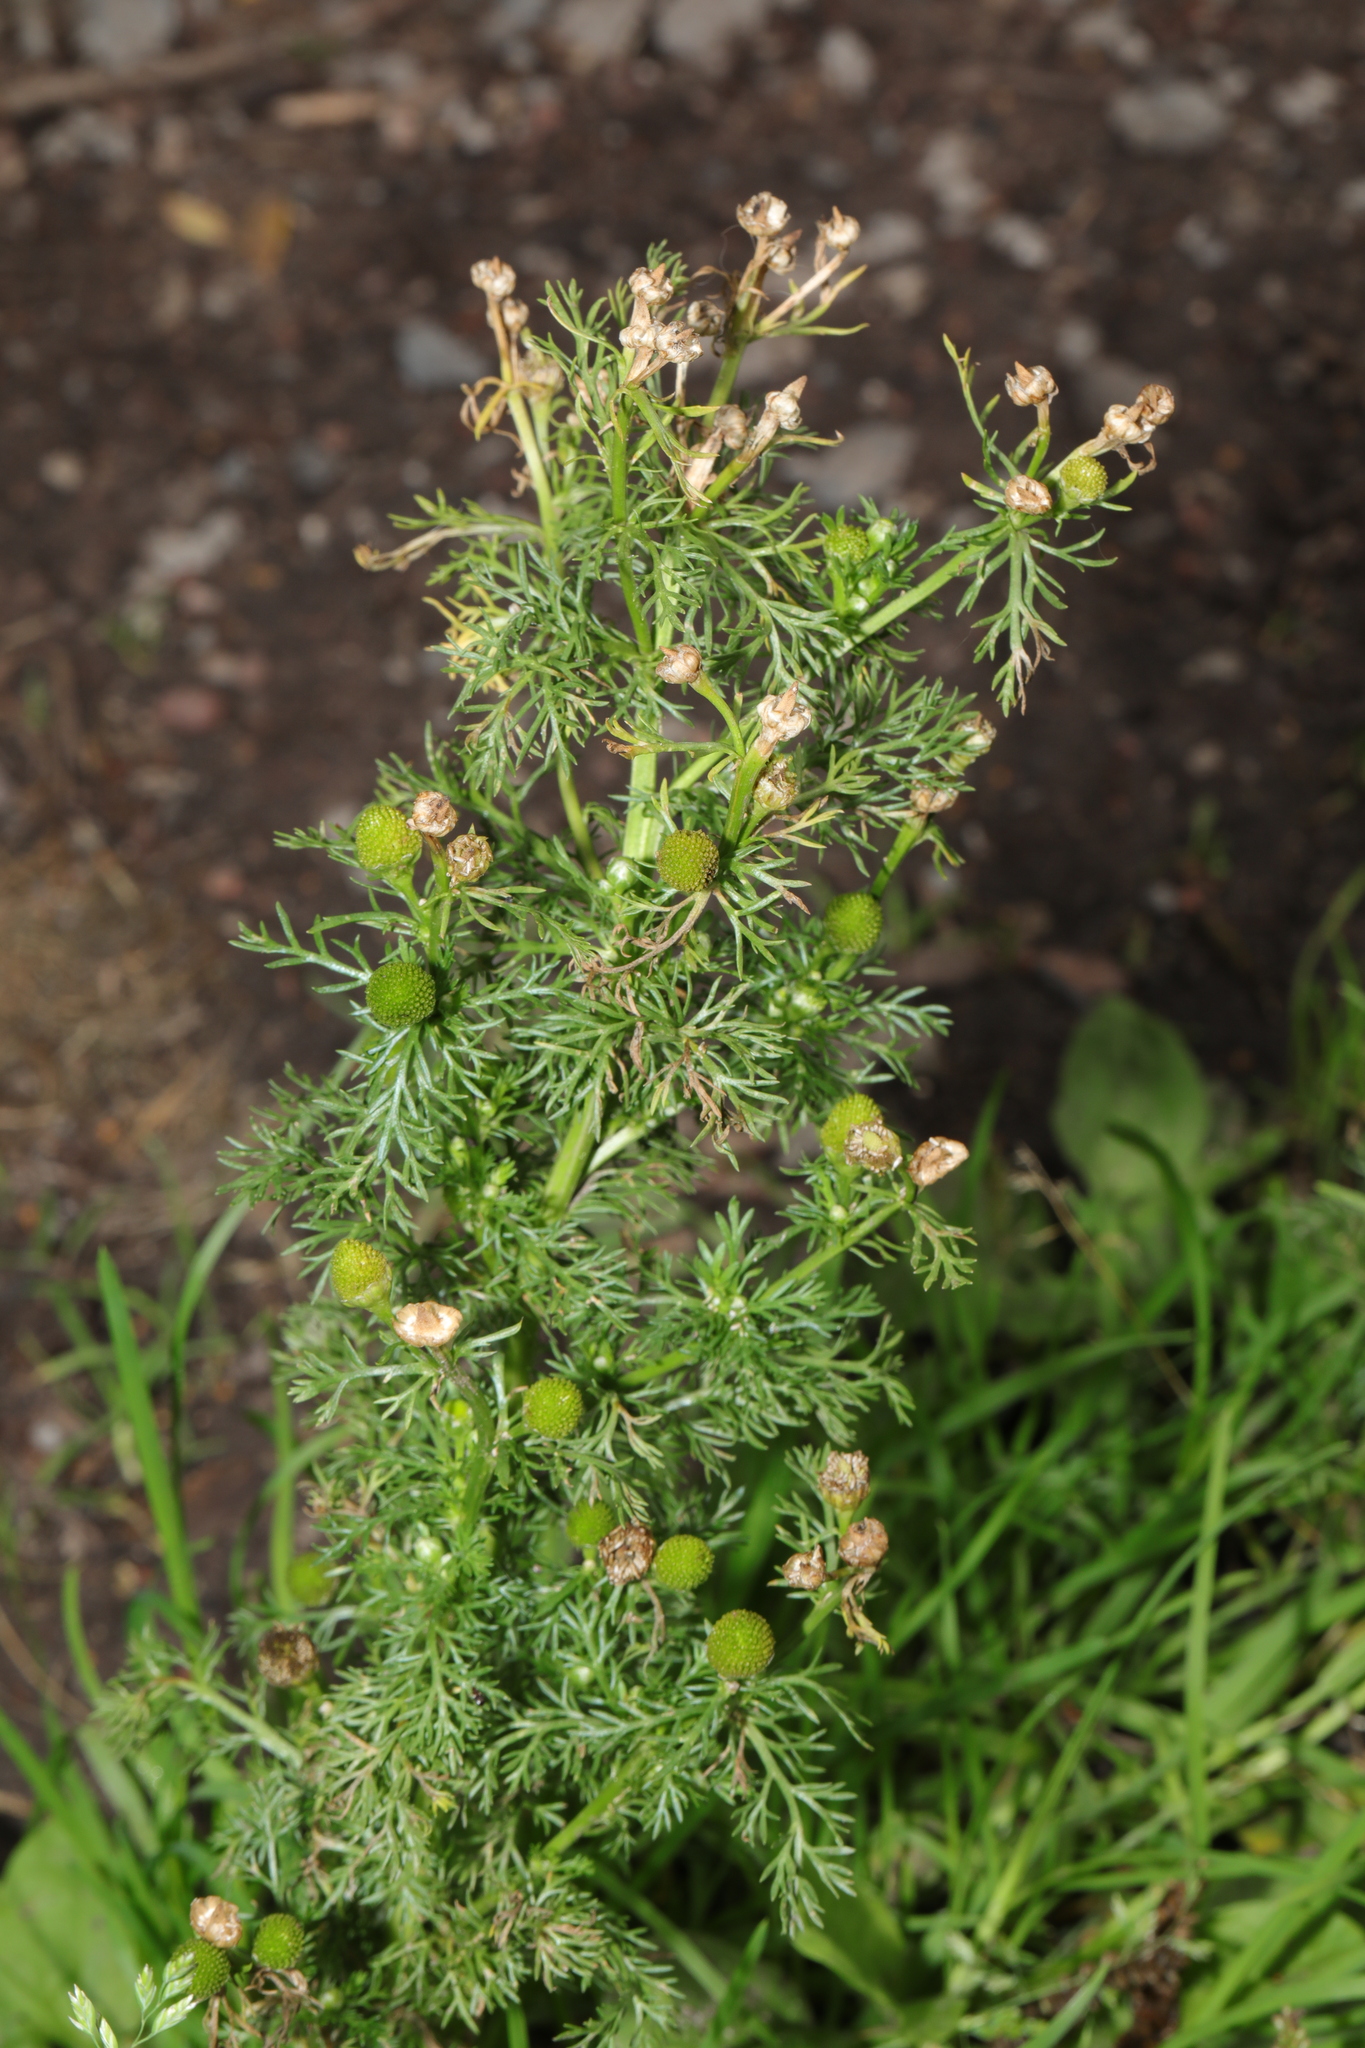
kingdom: Plantae
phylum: Tracheophyta
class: Magnoliopsida
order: Asterales
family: Asteraceae
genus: Matricaria
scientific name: Matricaria discoidea
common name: Disc mayweed
